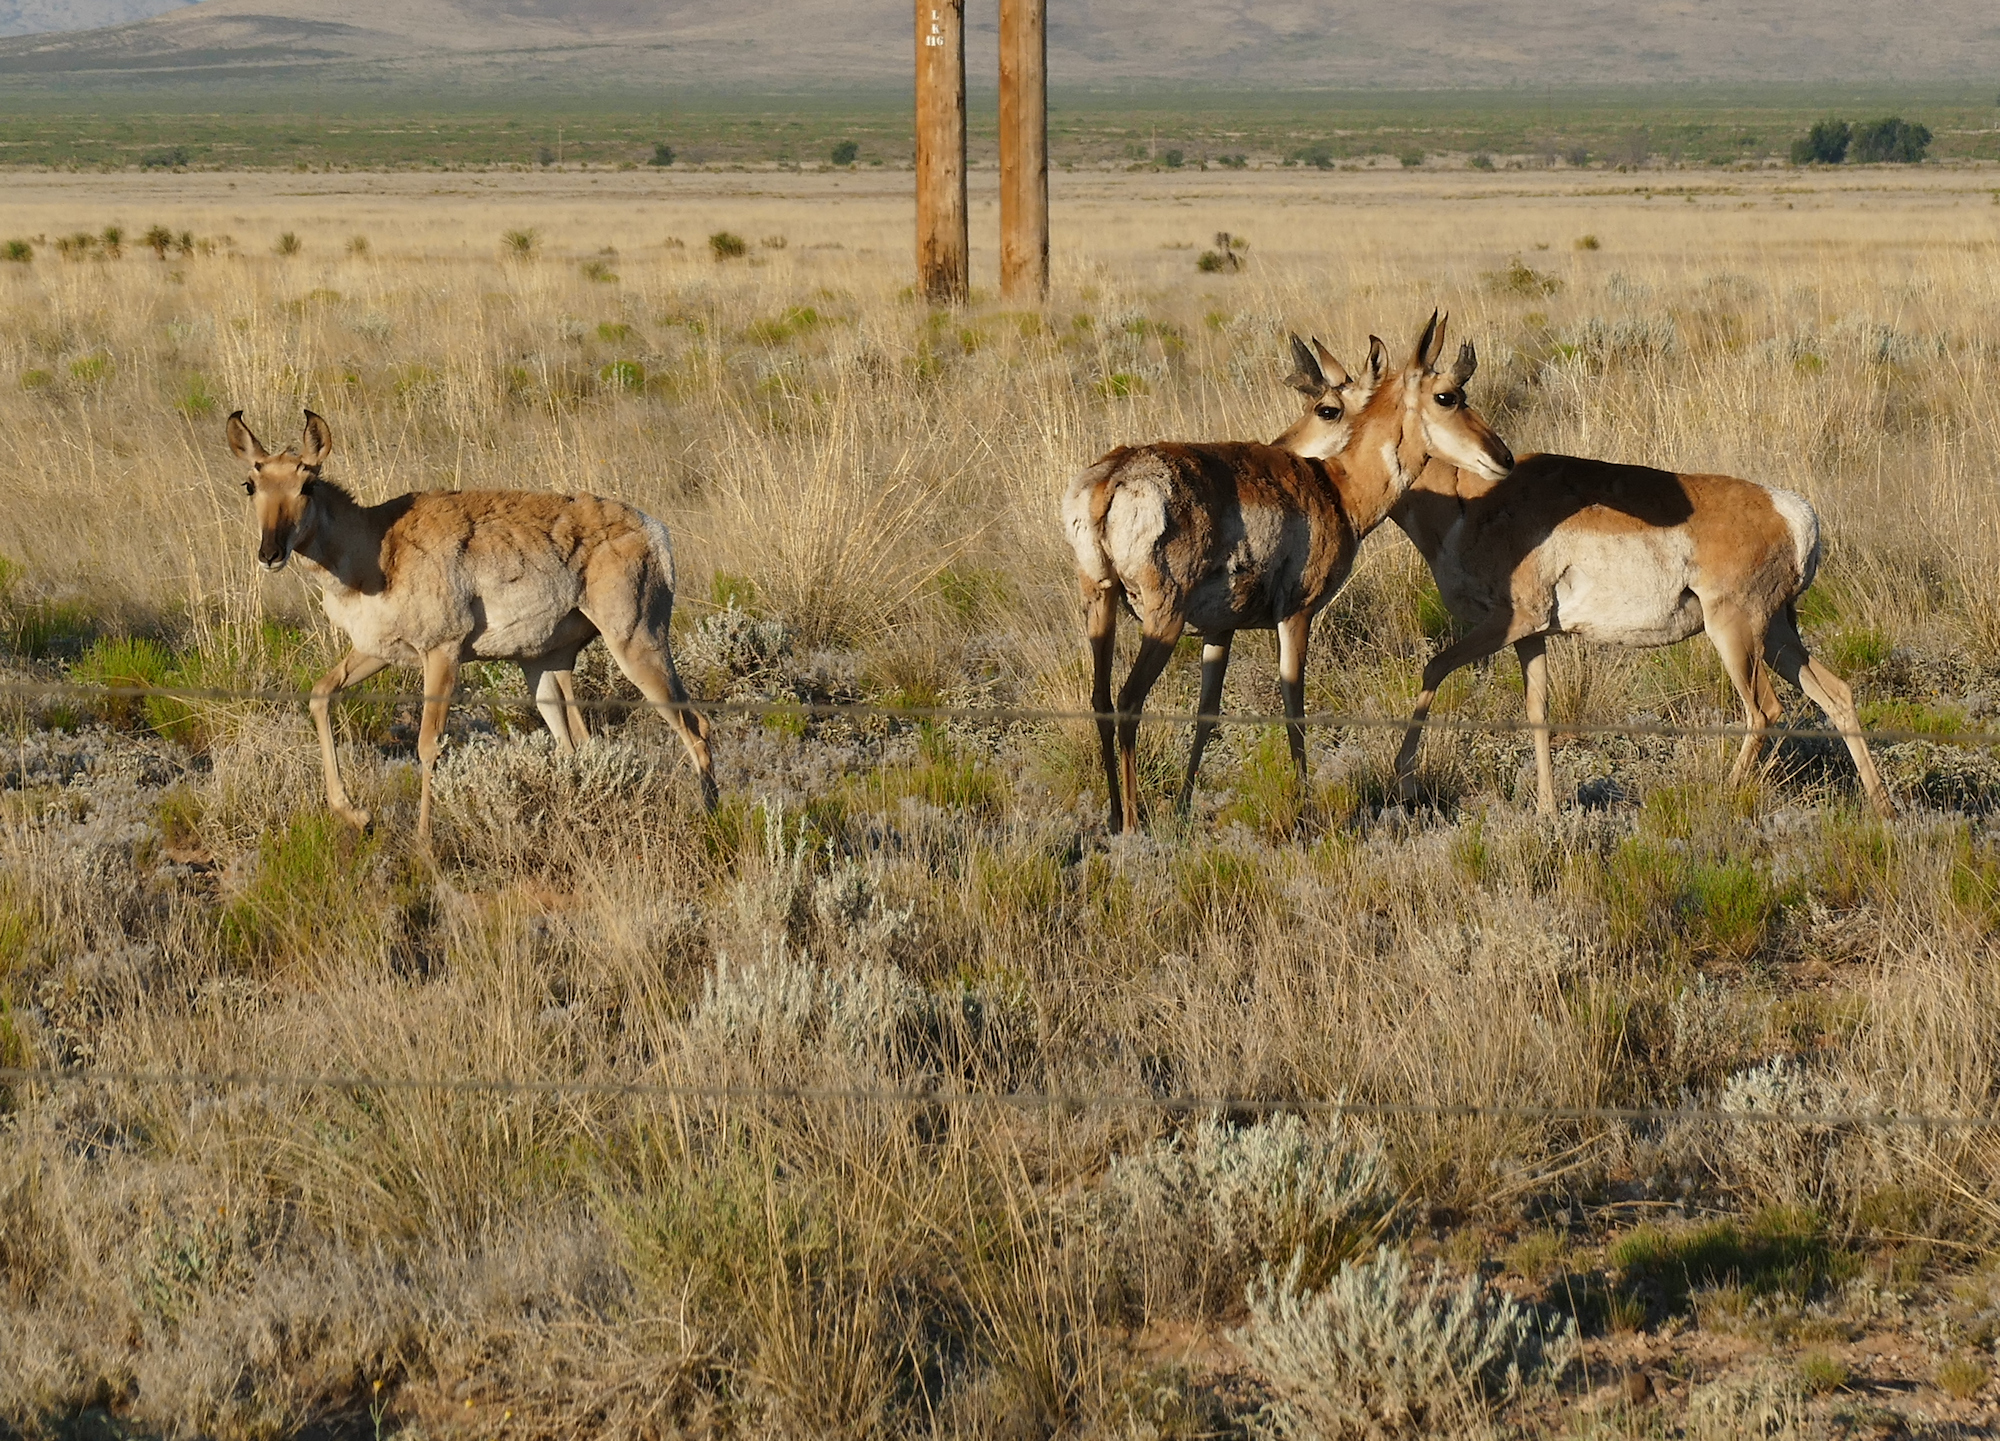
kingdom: Animalia
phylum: Chordata
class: Mammalia
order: Artiodactyla
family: Antilocapridae
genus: Antilocapra
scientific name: Antilocapra americana
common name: Pronghorn
